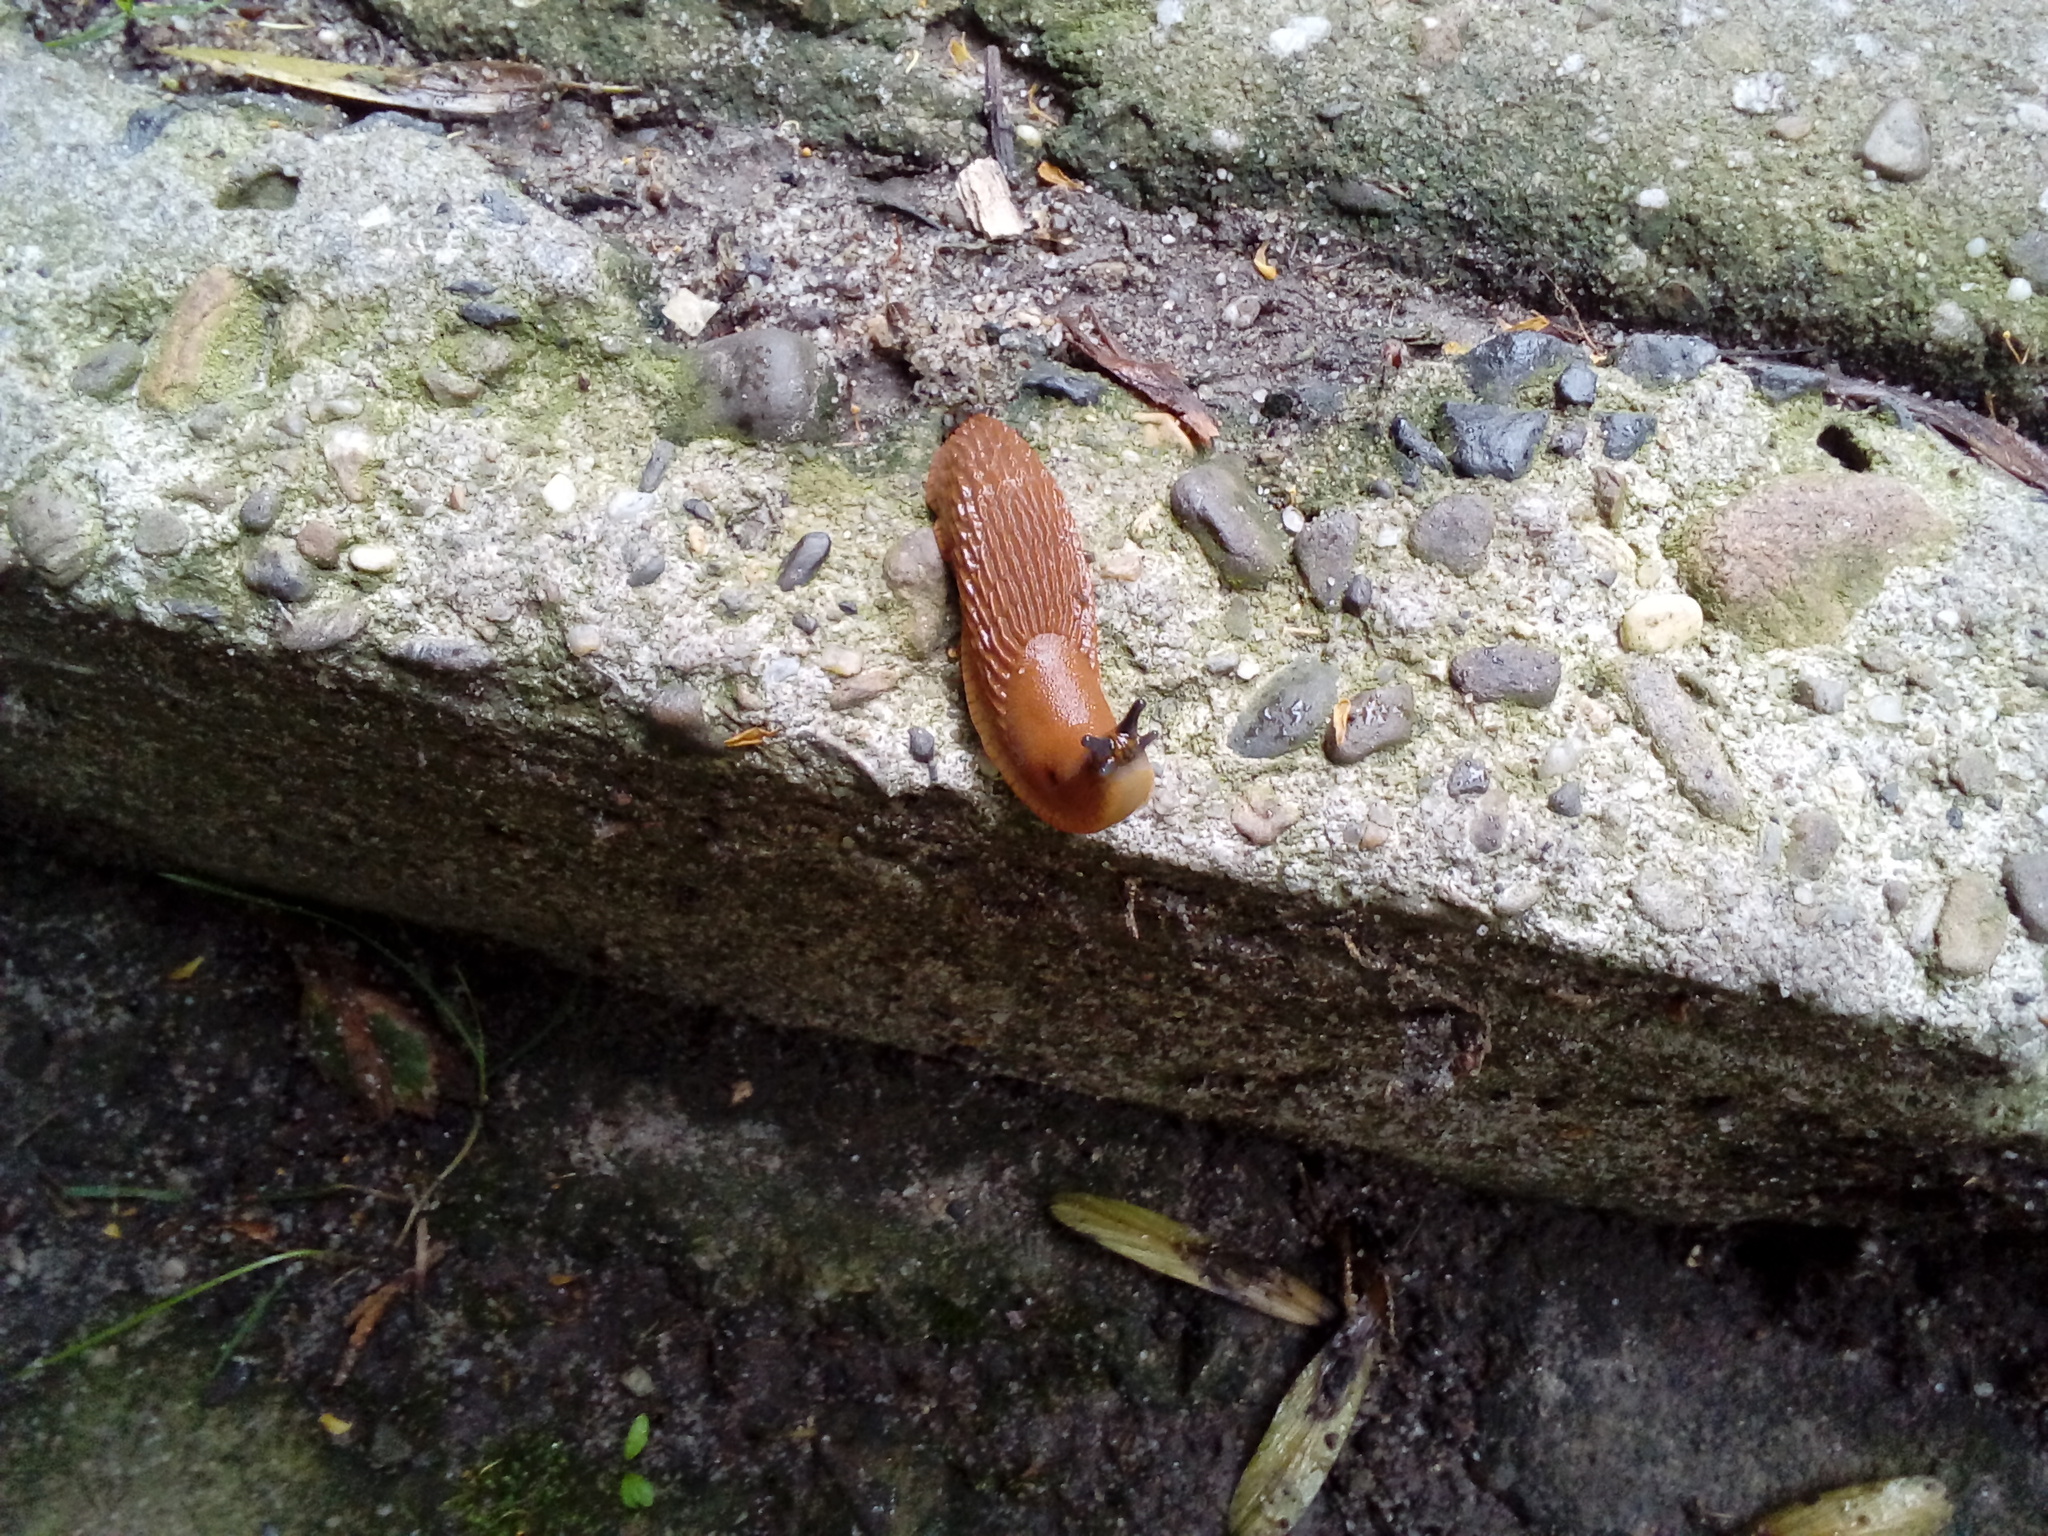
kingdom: Animalia
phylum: Mollusca
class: Gastropoda
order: Stylommatophora
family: Arionidae
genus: Arion
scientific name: Arion rufus
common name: Chocolate arion
